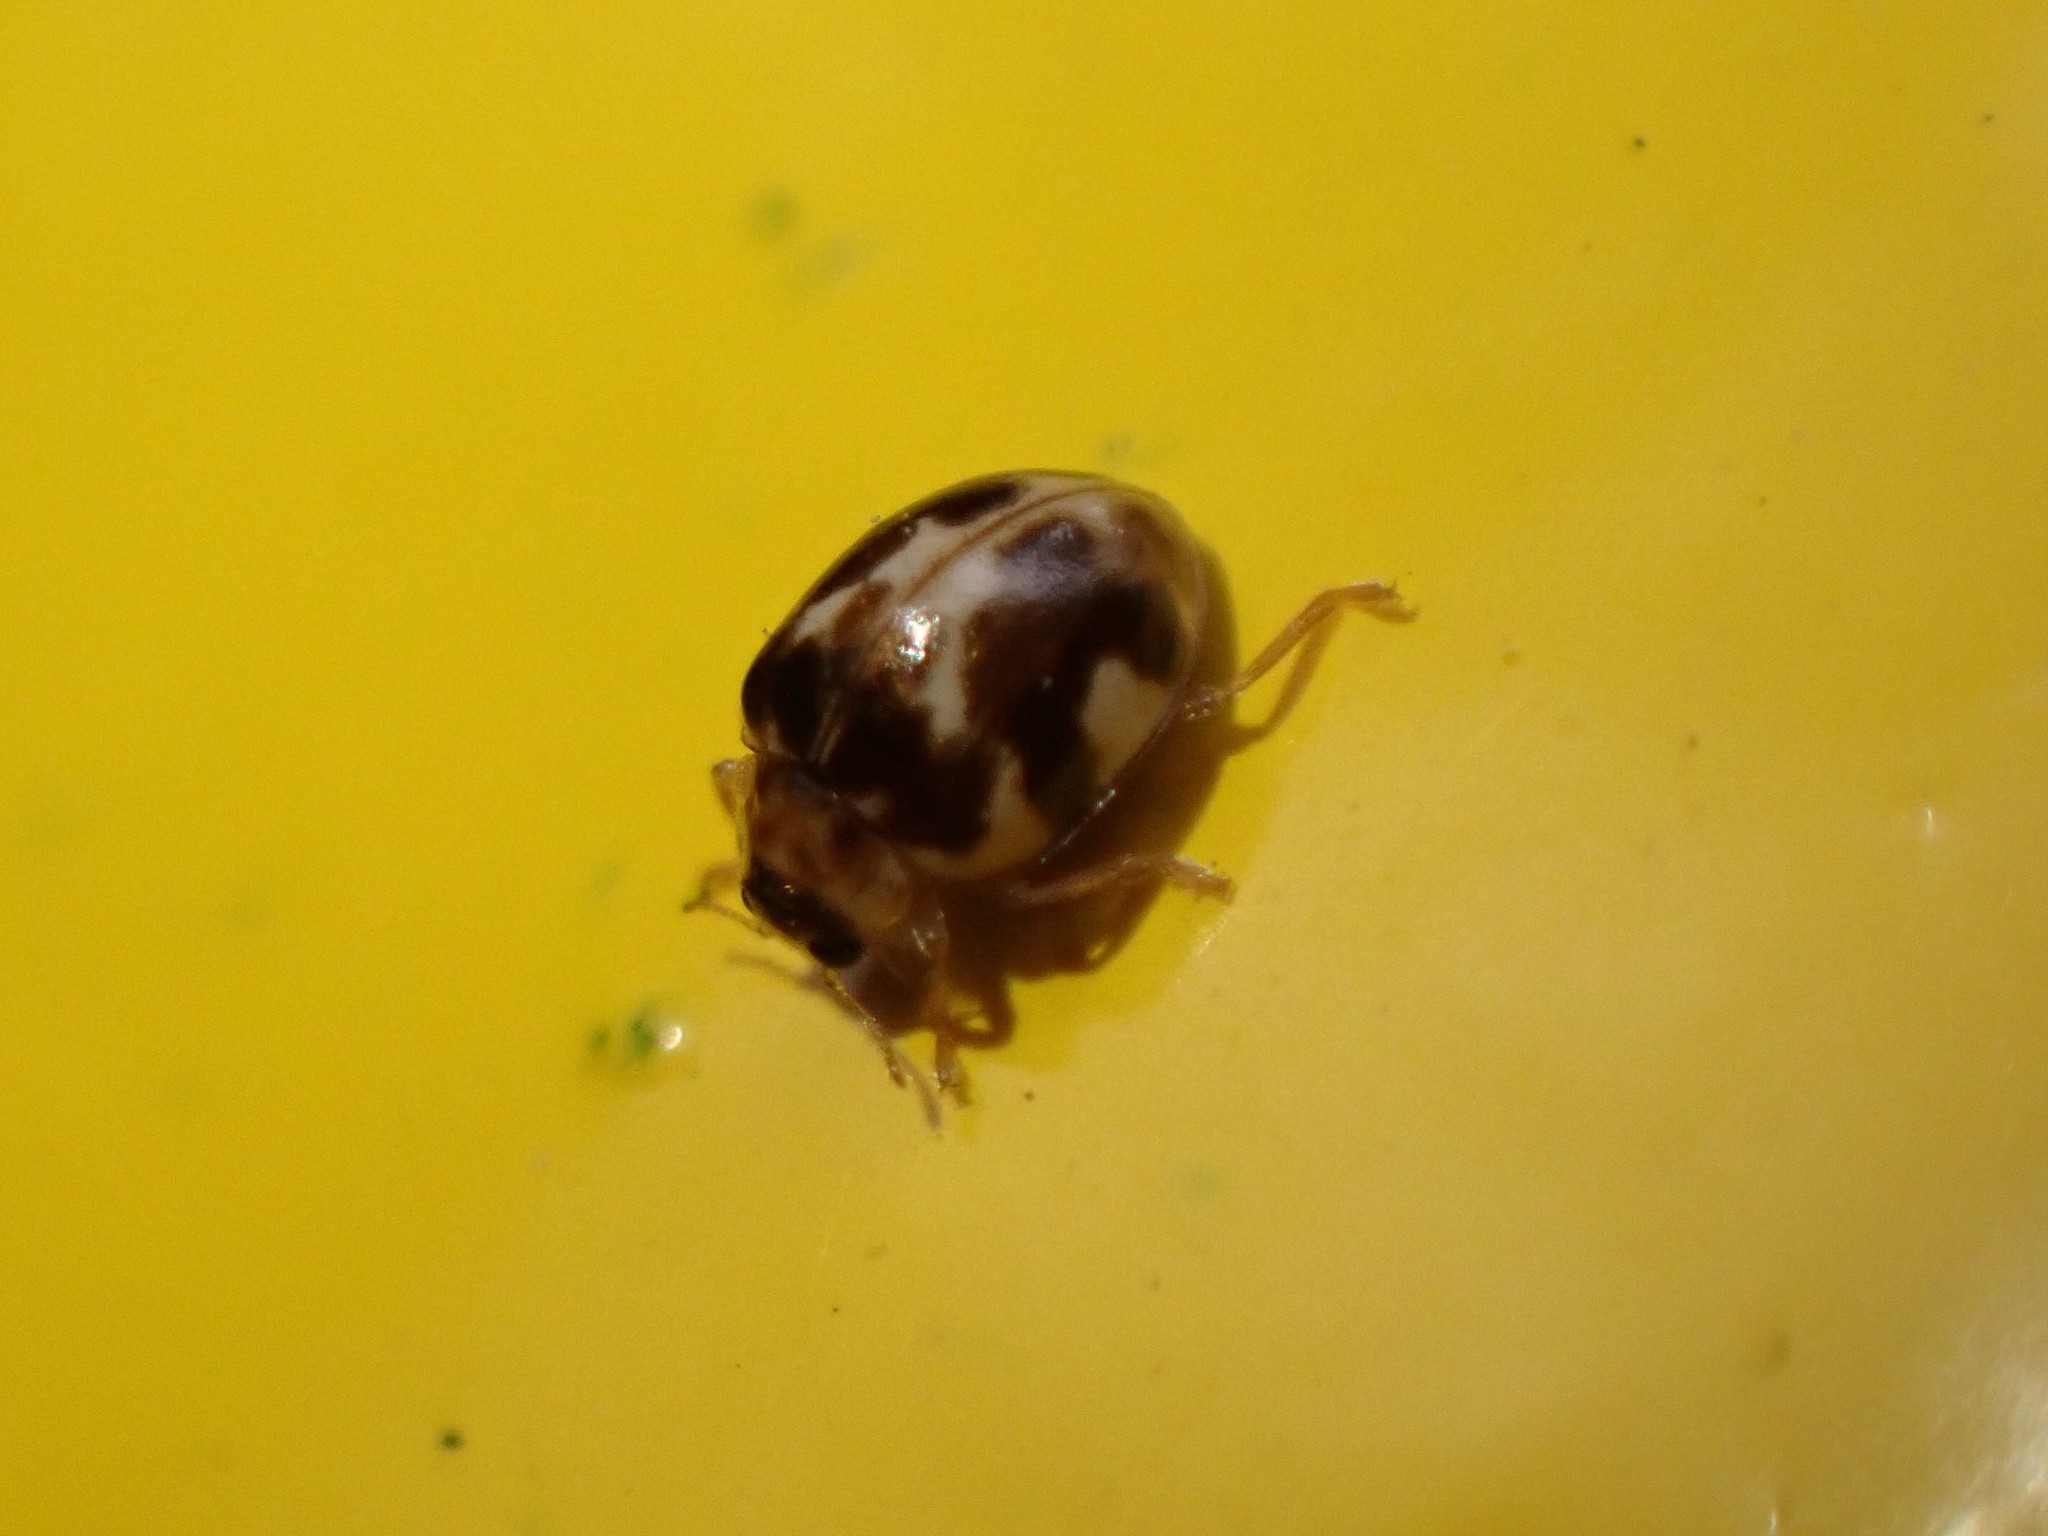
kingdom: Animalia
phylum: Arthropoda
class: Insecta
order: Coleoptera
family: Coccinellidae
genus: Psyllobora
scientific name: Psyllobora vigintimaculata
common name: Ladybird beetle
